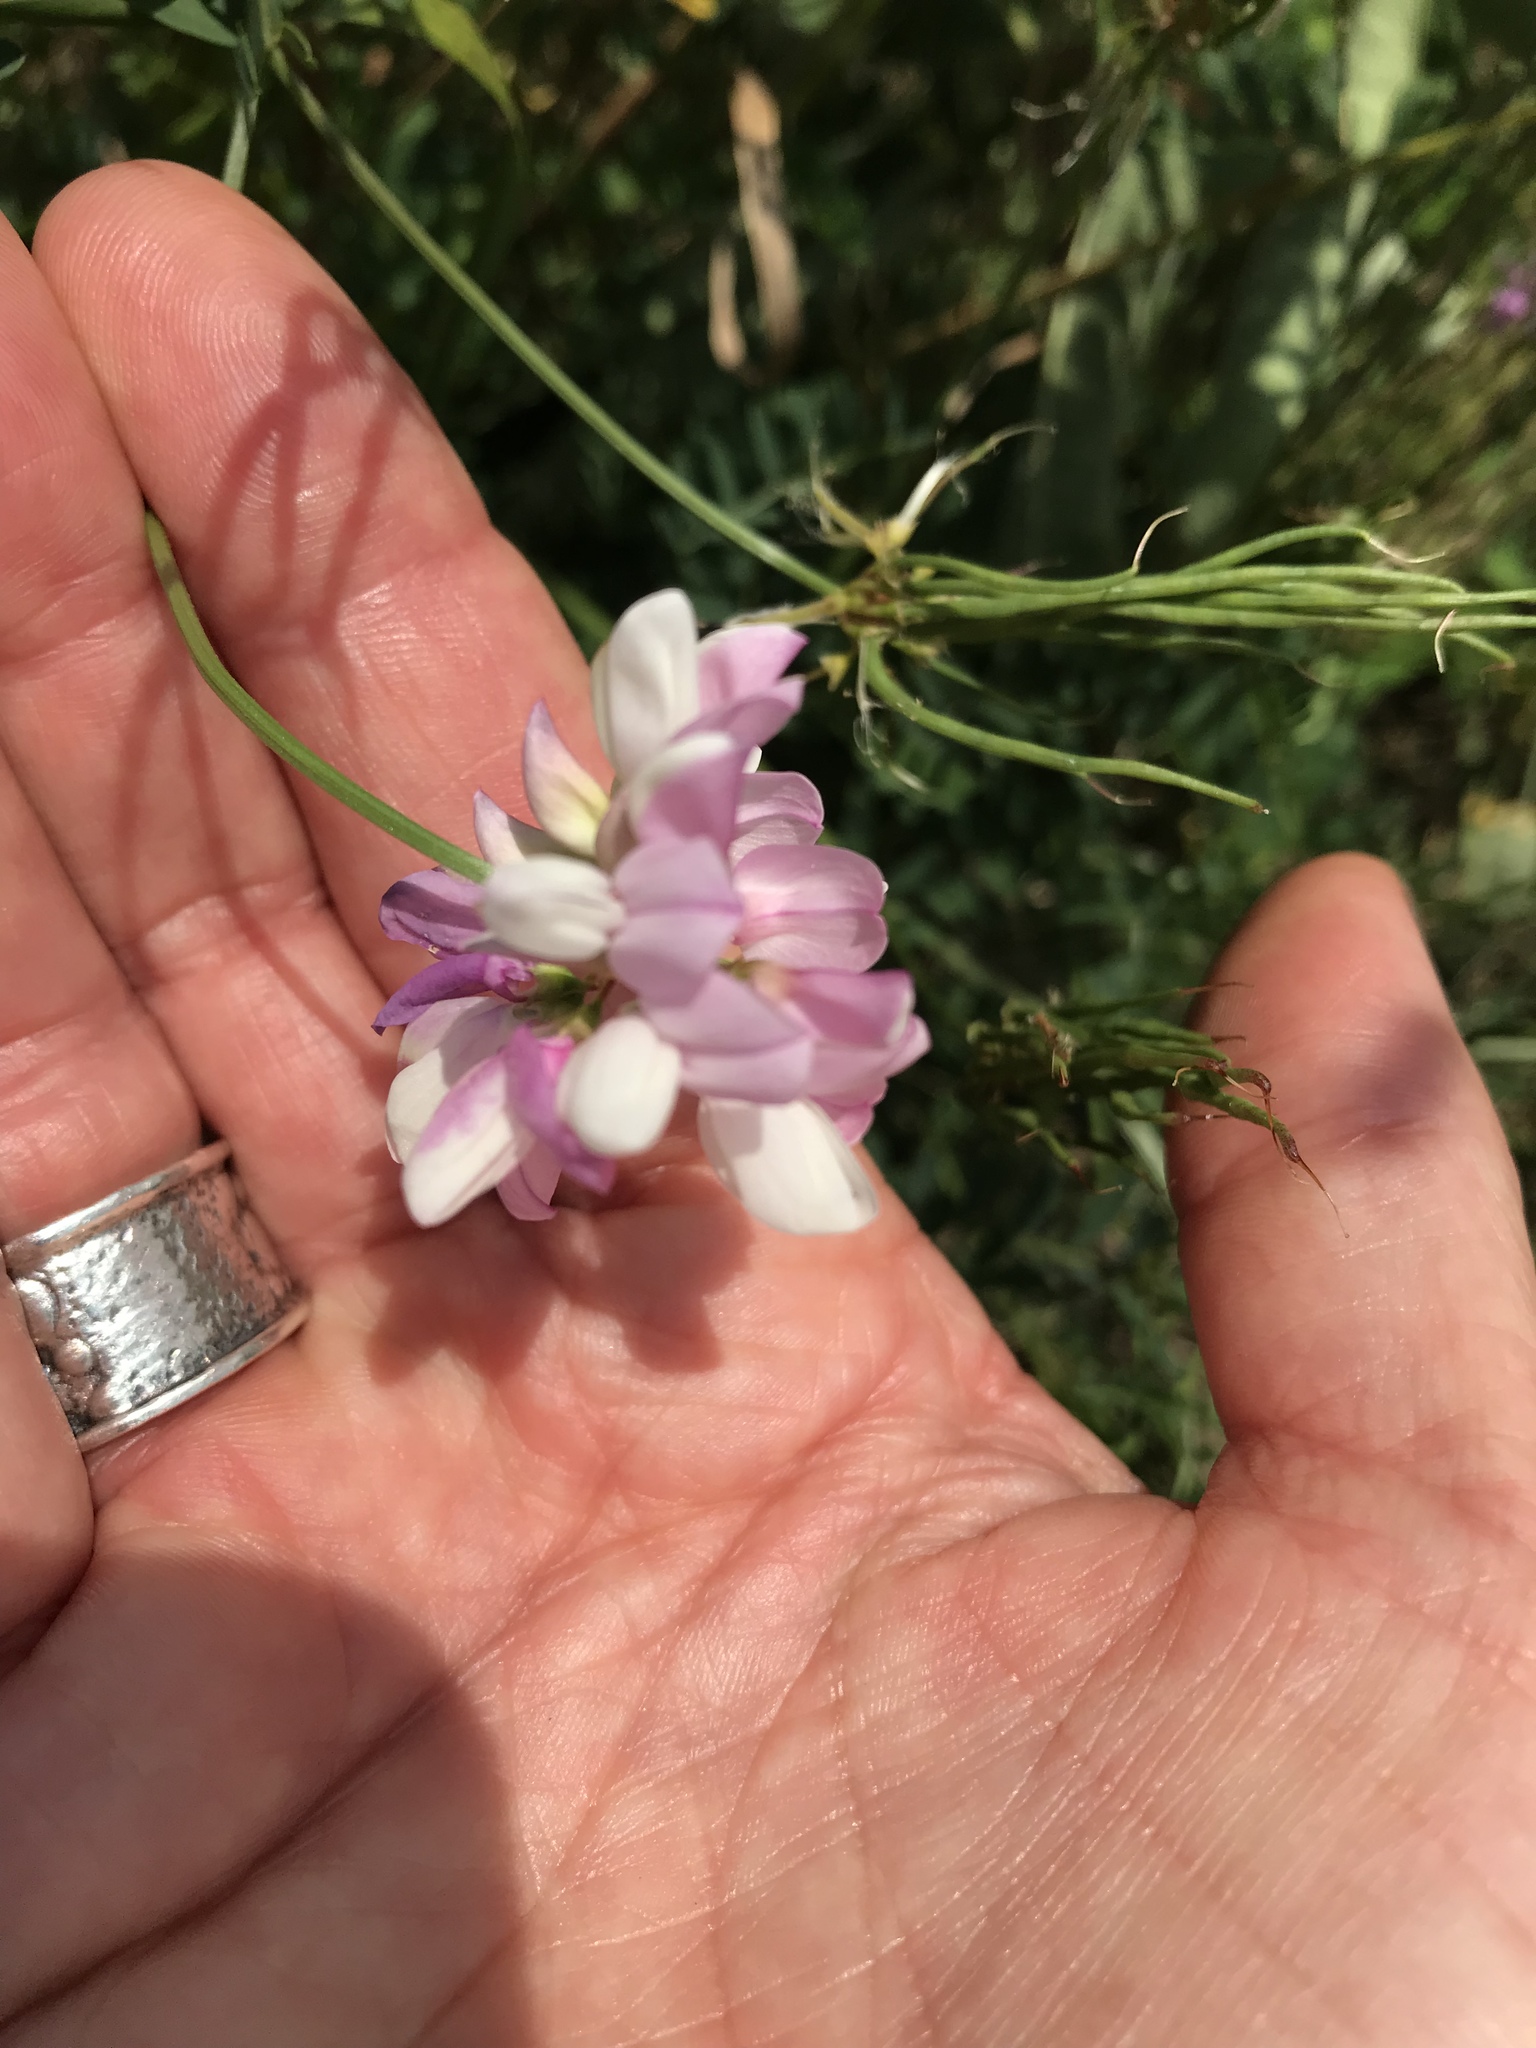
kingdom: Plantae
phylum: Tracheophyta
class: Magnoliopsida
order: Fabales
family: Fabaceae
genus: Coronilla
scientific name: Coronilla varia
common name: Crownvetch
